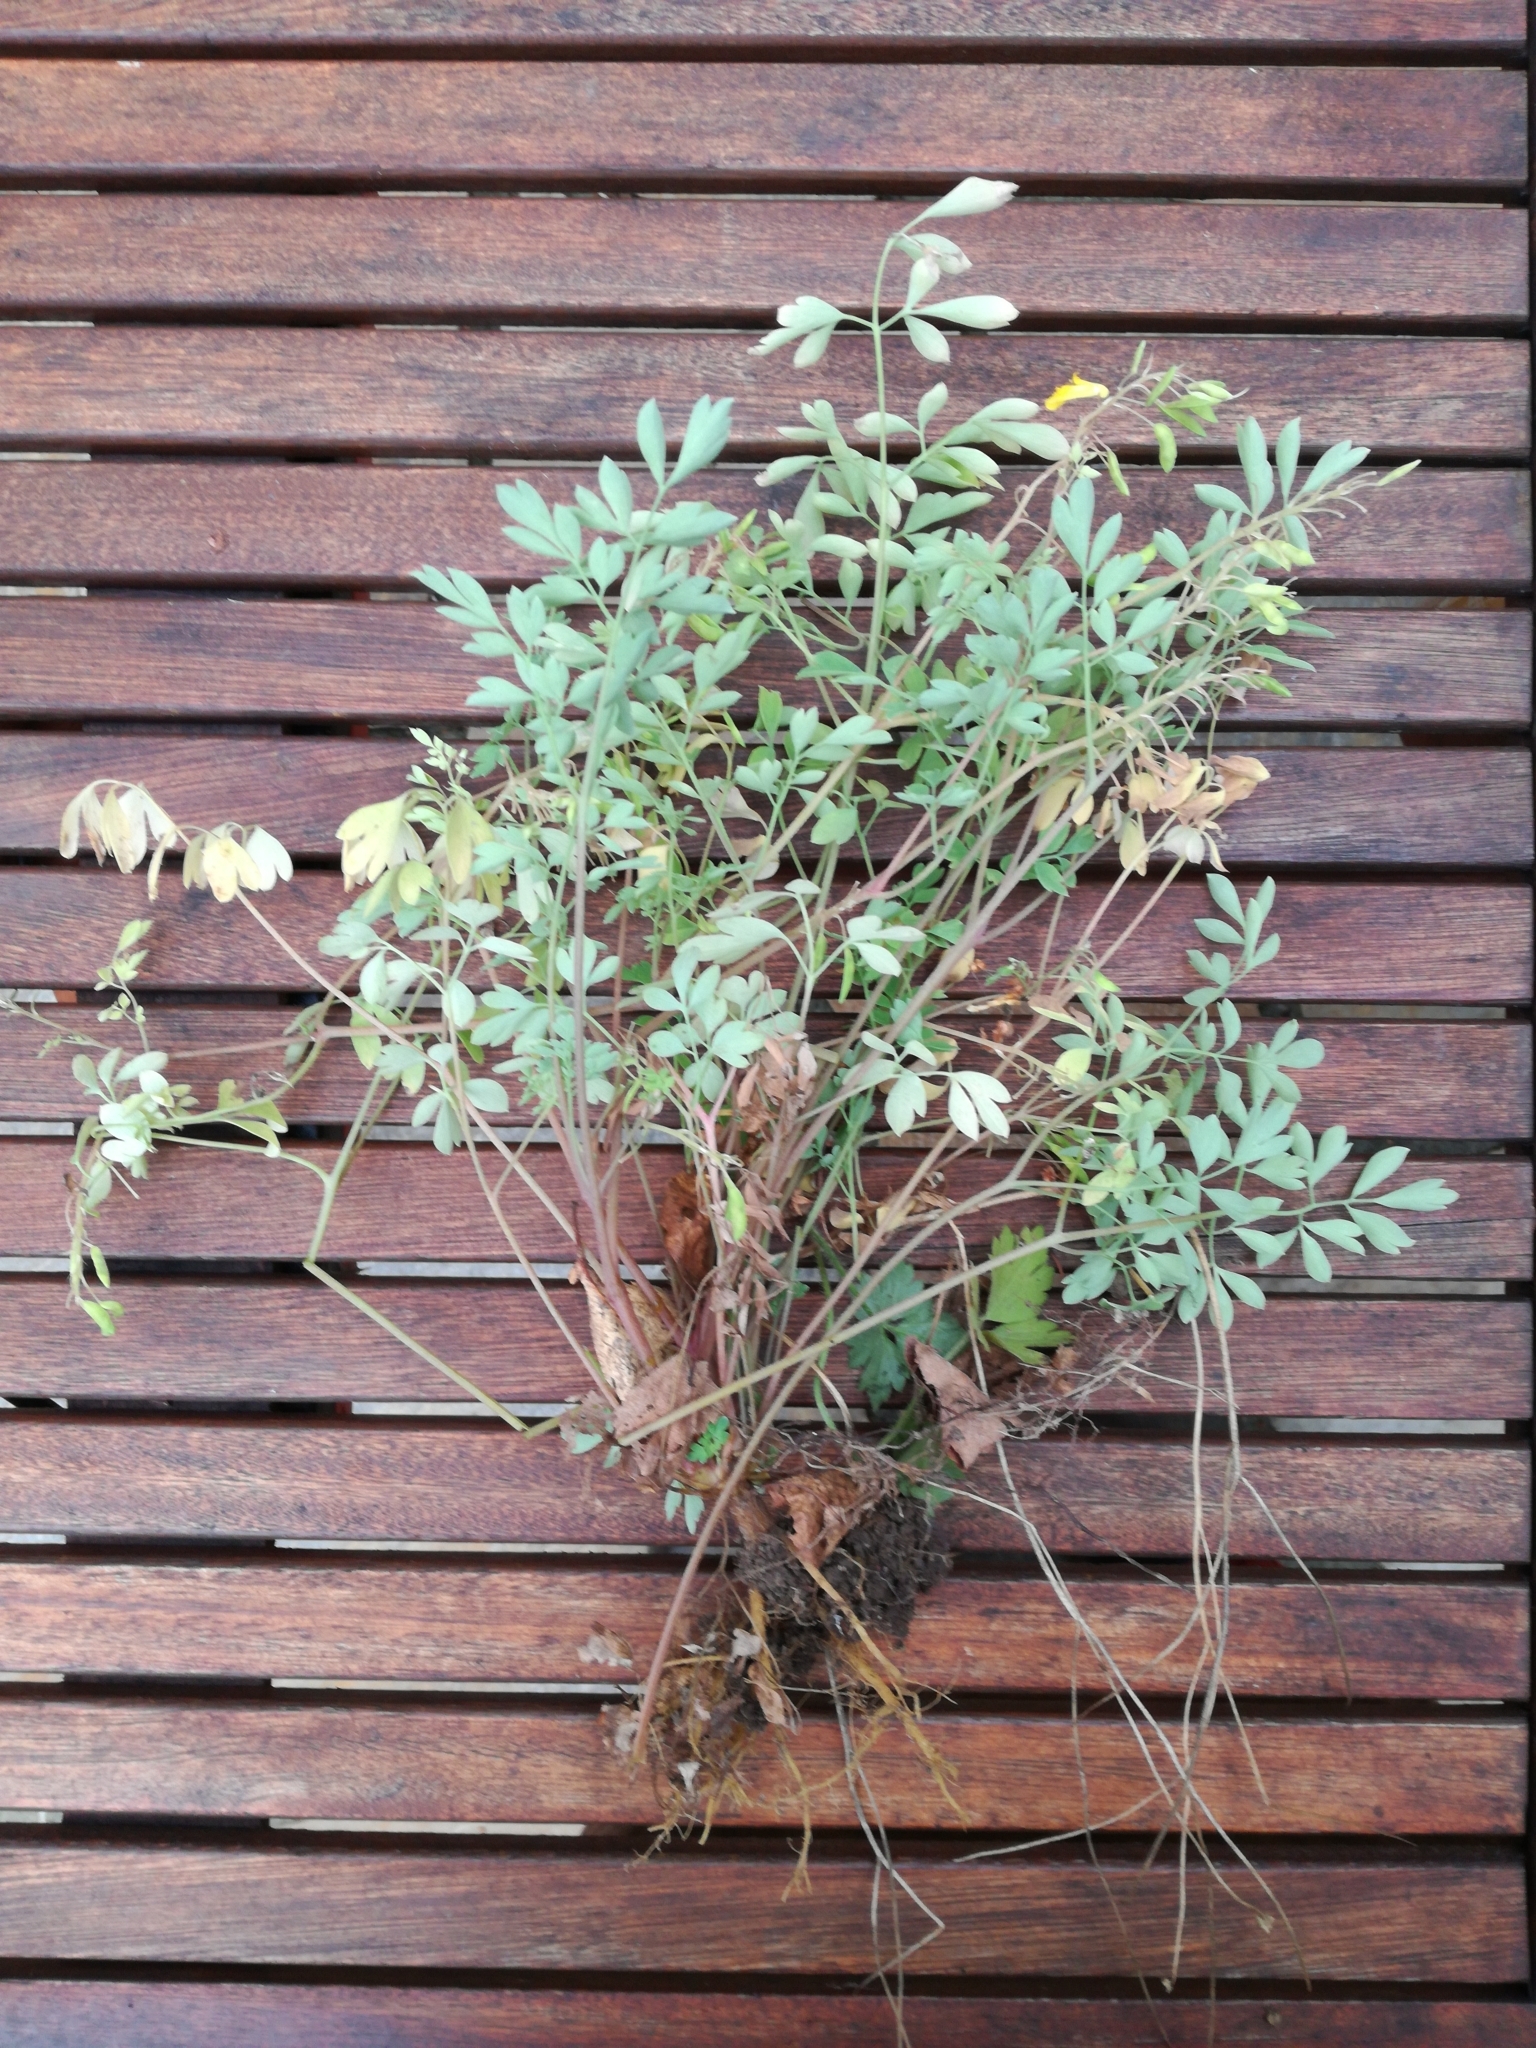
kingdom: Plantae
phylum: Tracheophyta
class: Magnoliopsida
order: Ranunculales
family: Papaveraceae
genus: Pseudofumaria
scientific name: Pseudofumaria lutea
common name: Yellow corydalis
